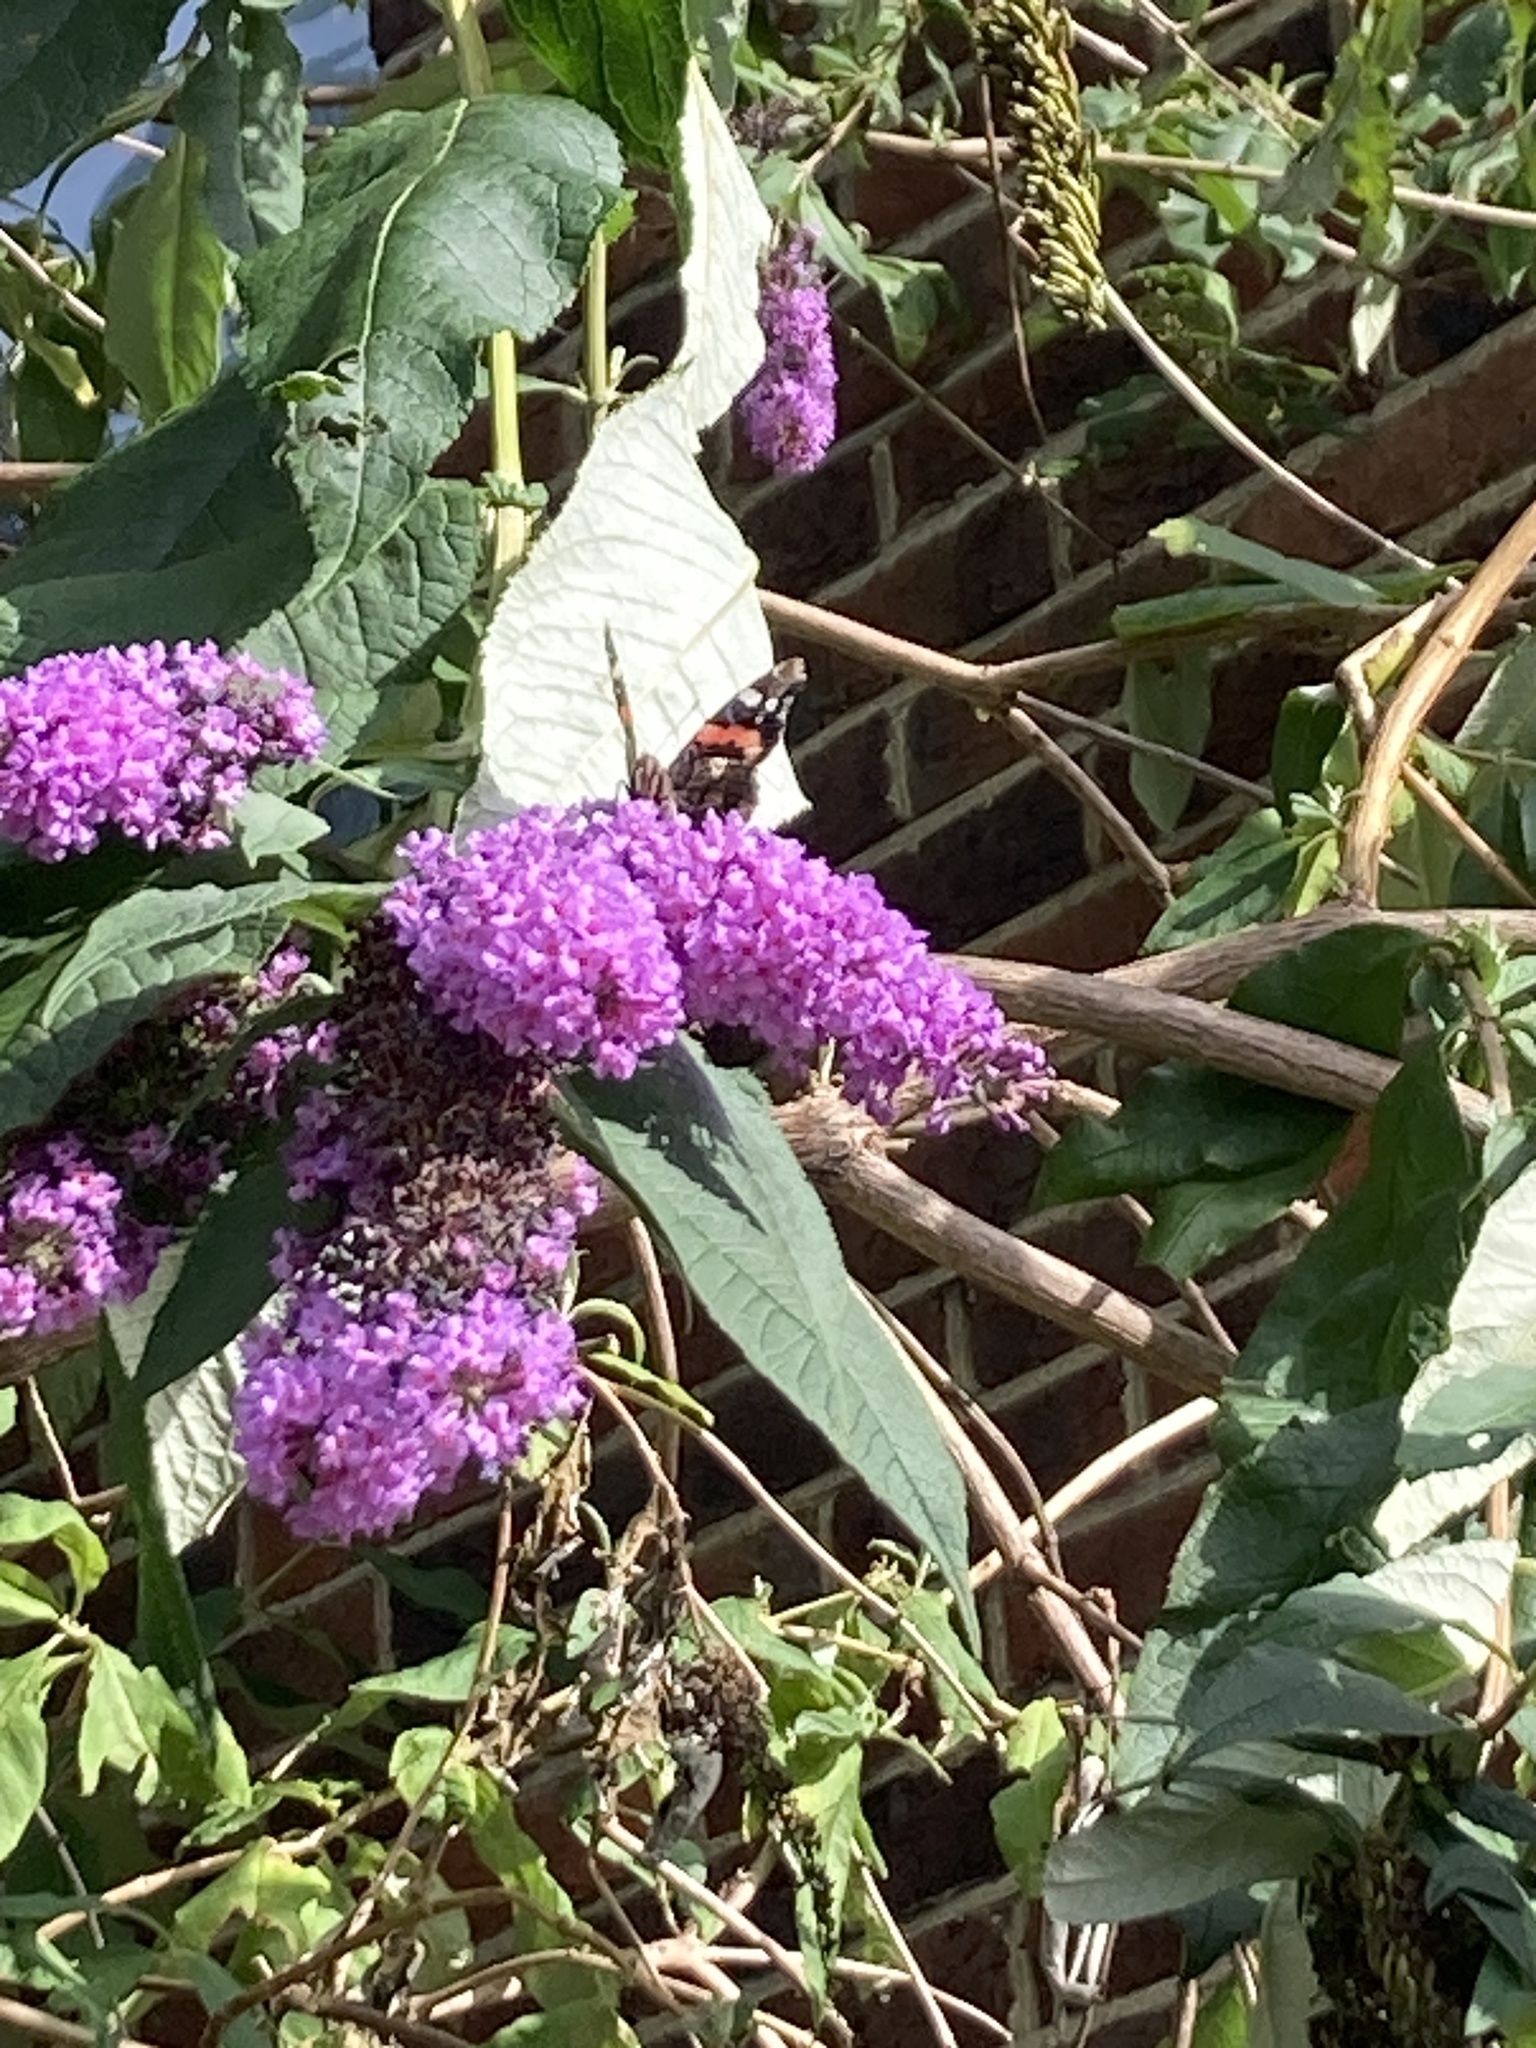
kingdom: Animalia
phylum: Arthropoda
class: Insecta
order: Lepidoptera
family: Nymphalidae
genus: Vanessa
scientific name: Vanessa atalanta
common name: Red admiral
